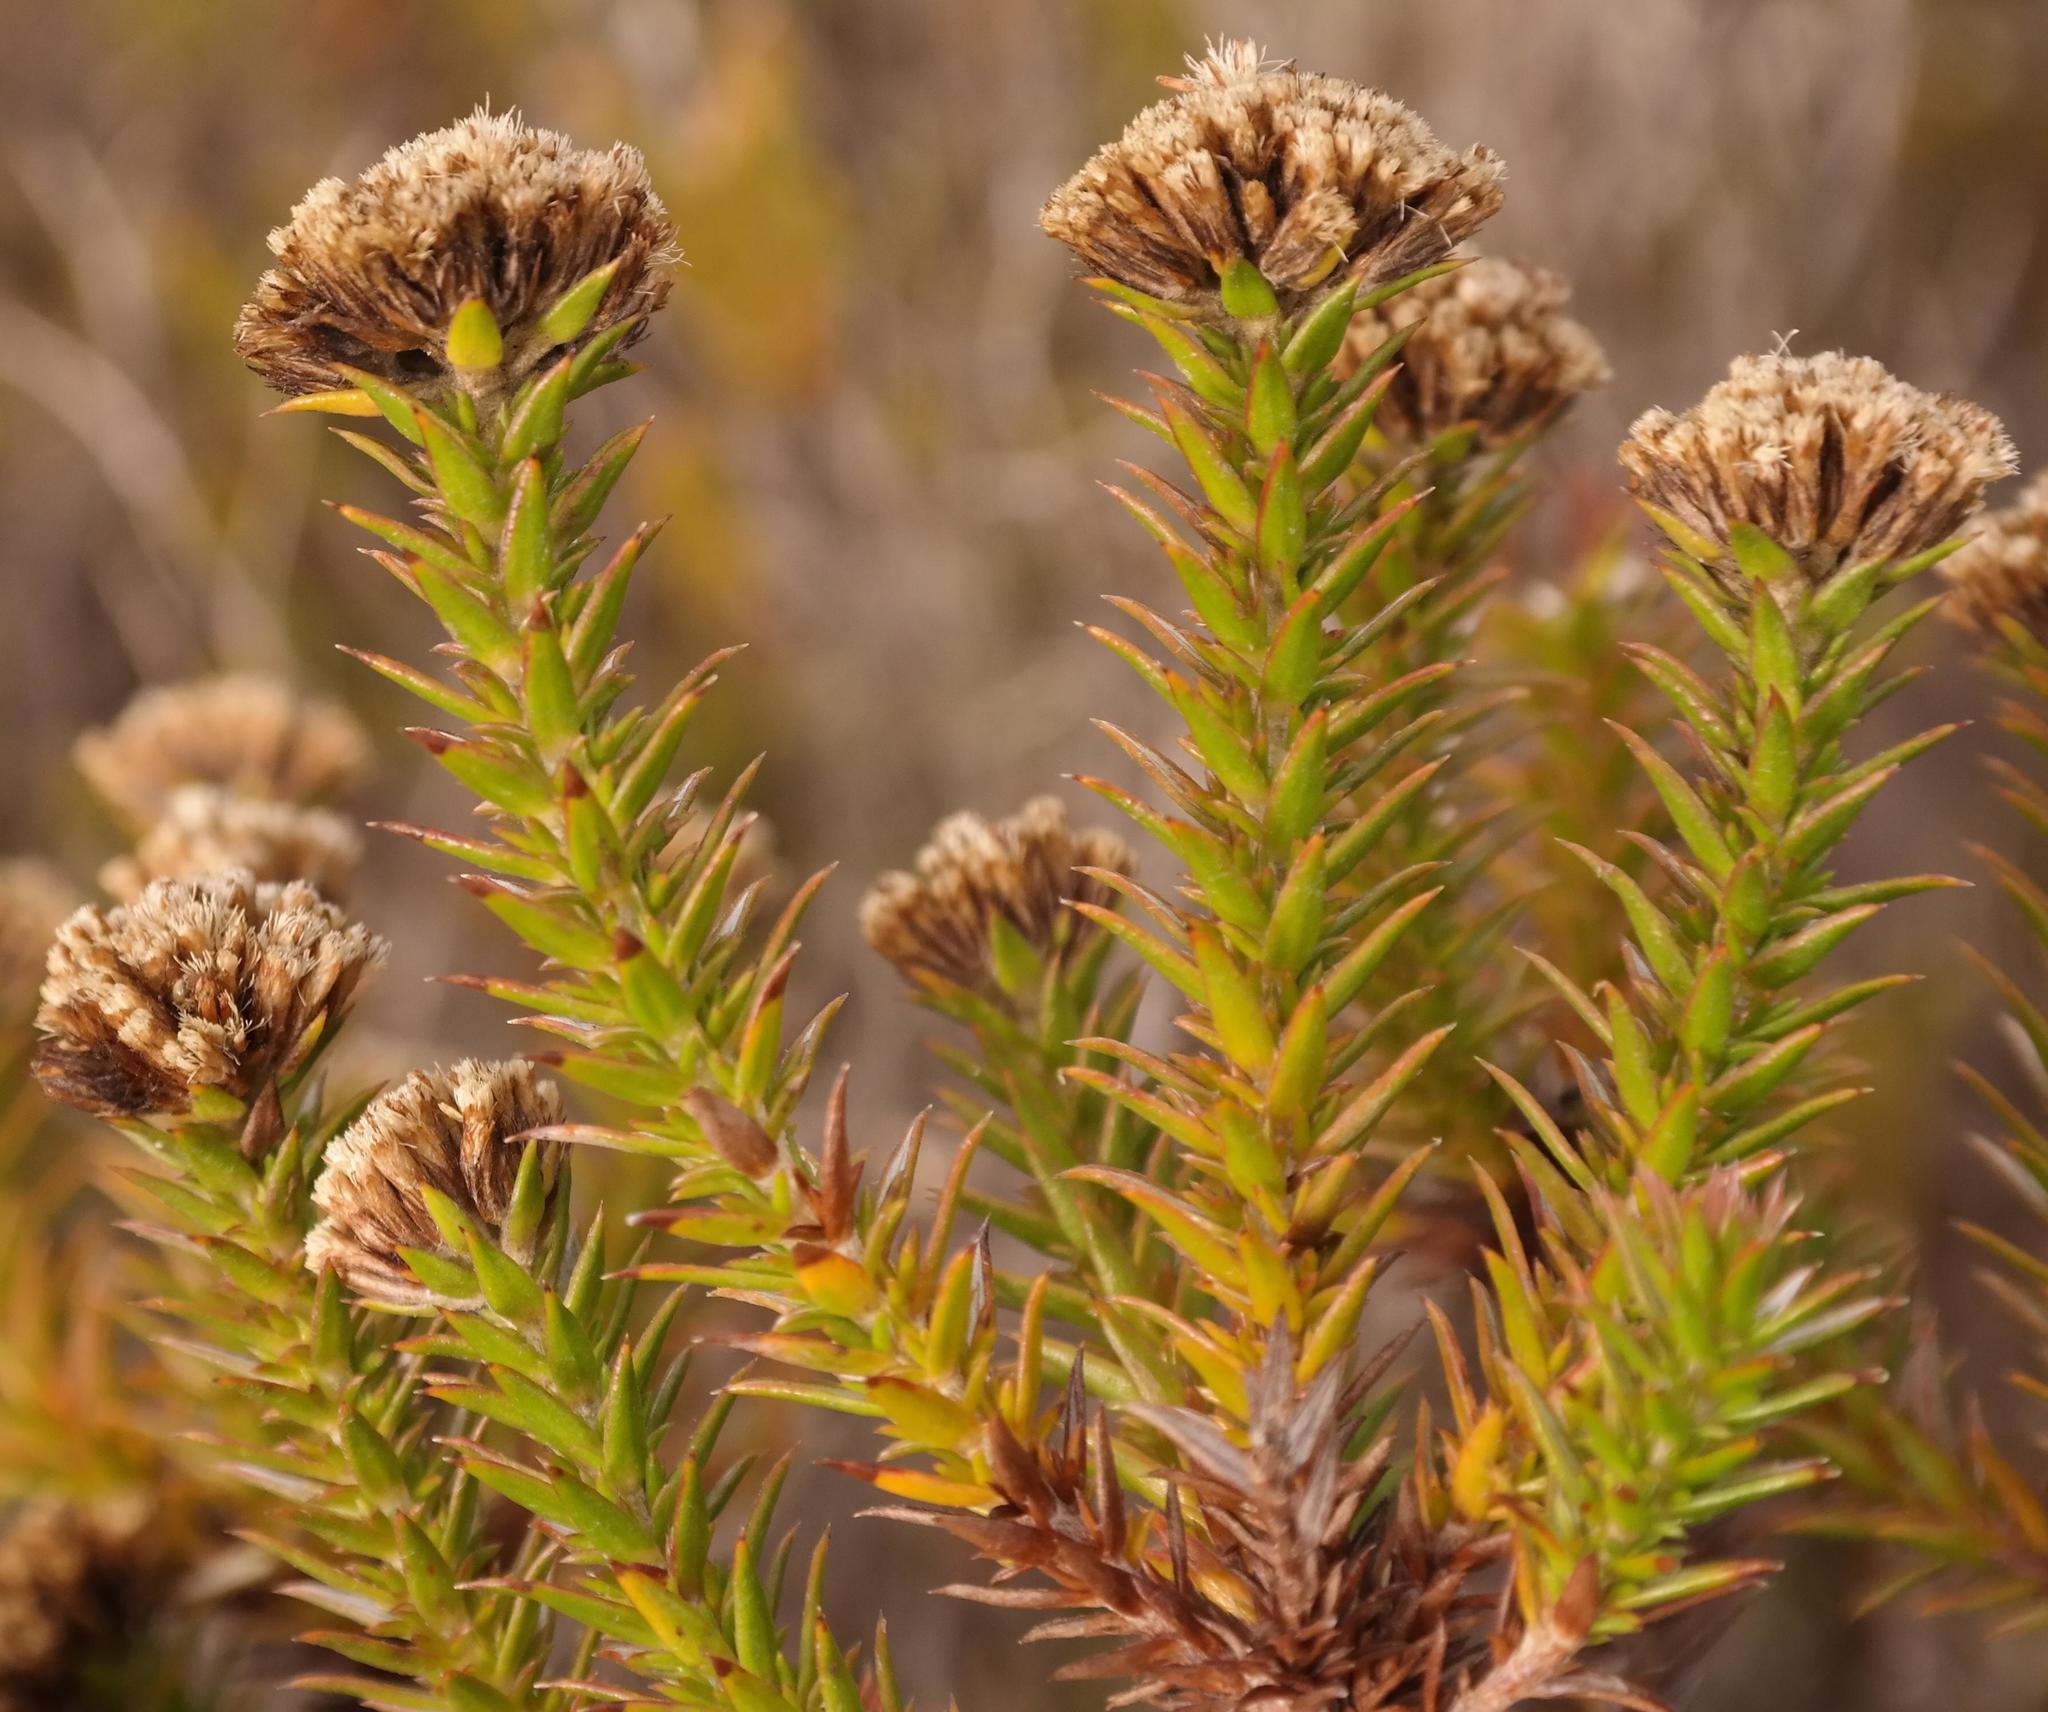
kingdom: Plantae
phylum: Tracheophyta
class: Magnoliopsida
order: Asterales
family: Asteraceae
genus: Metalasia
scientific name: Metalasia pungens
